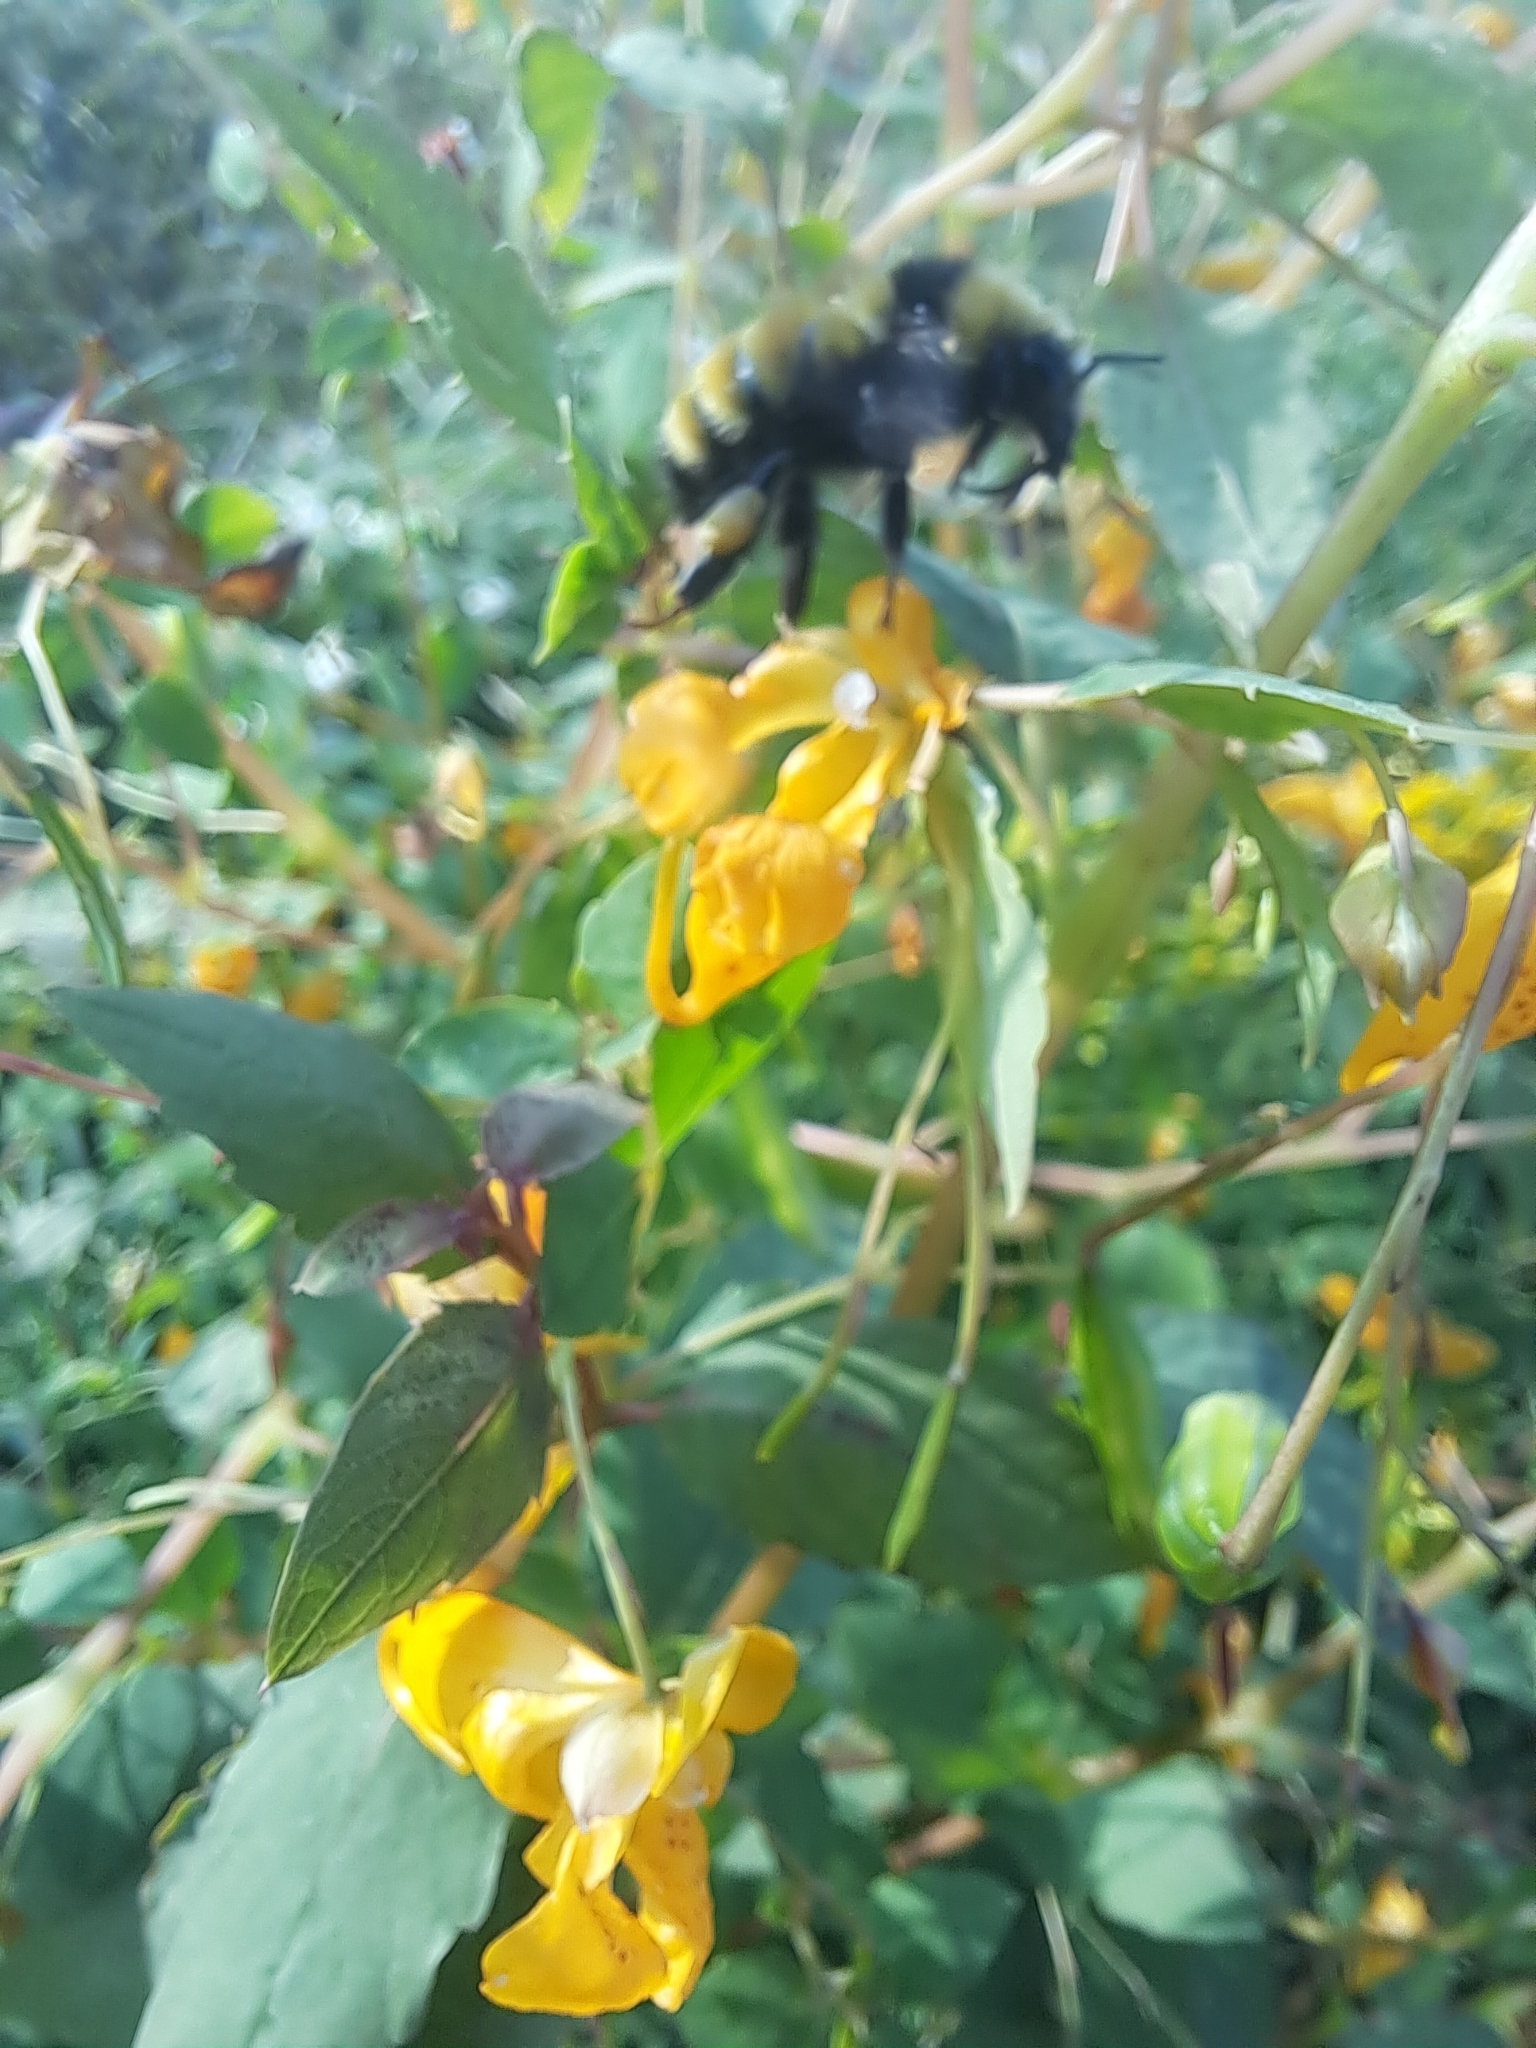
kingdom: Animalia
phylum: Arthropoda
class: Insecta
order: Hymenoptera
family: Apidae
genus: Bombus
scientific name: Bombus borealis
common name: Northern amber bumble bee
